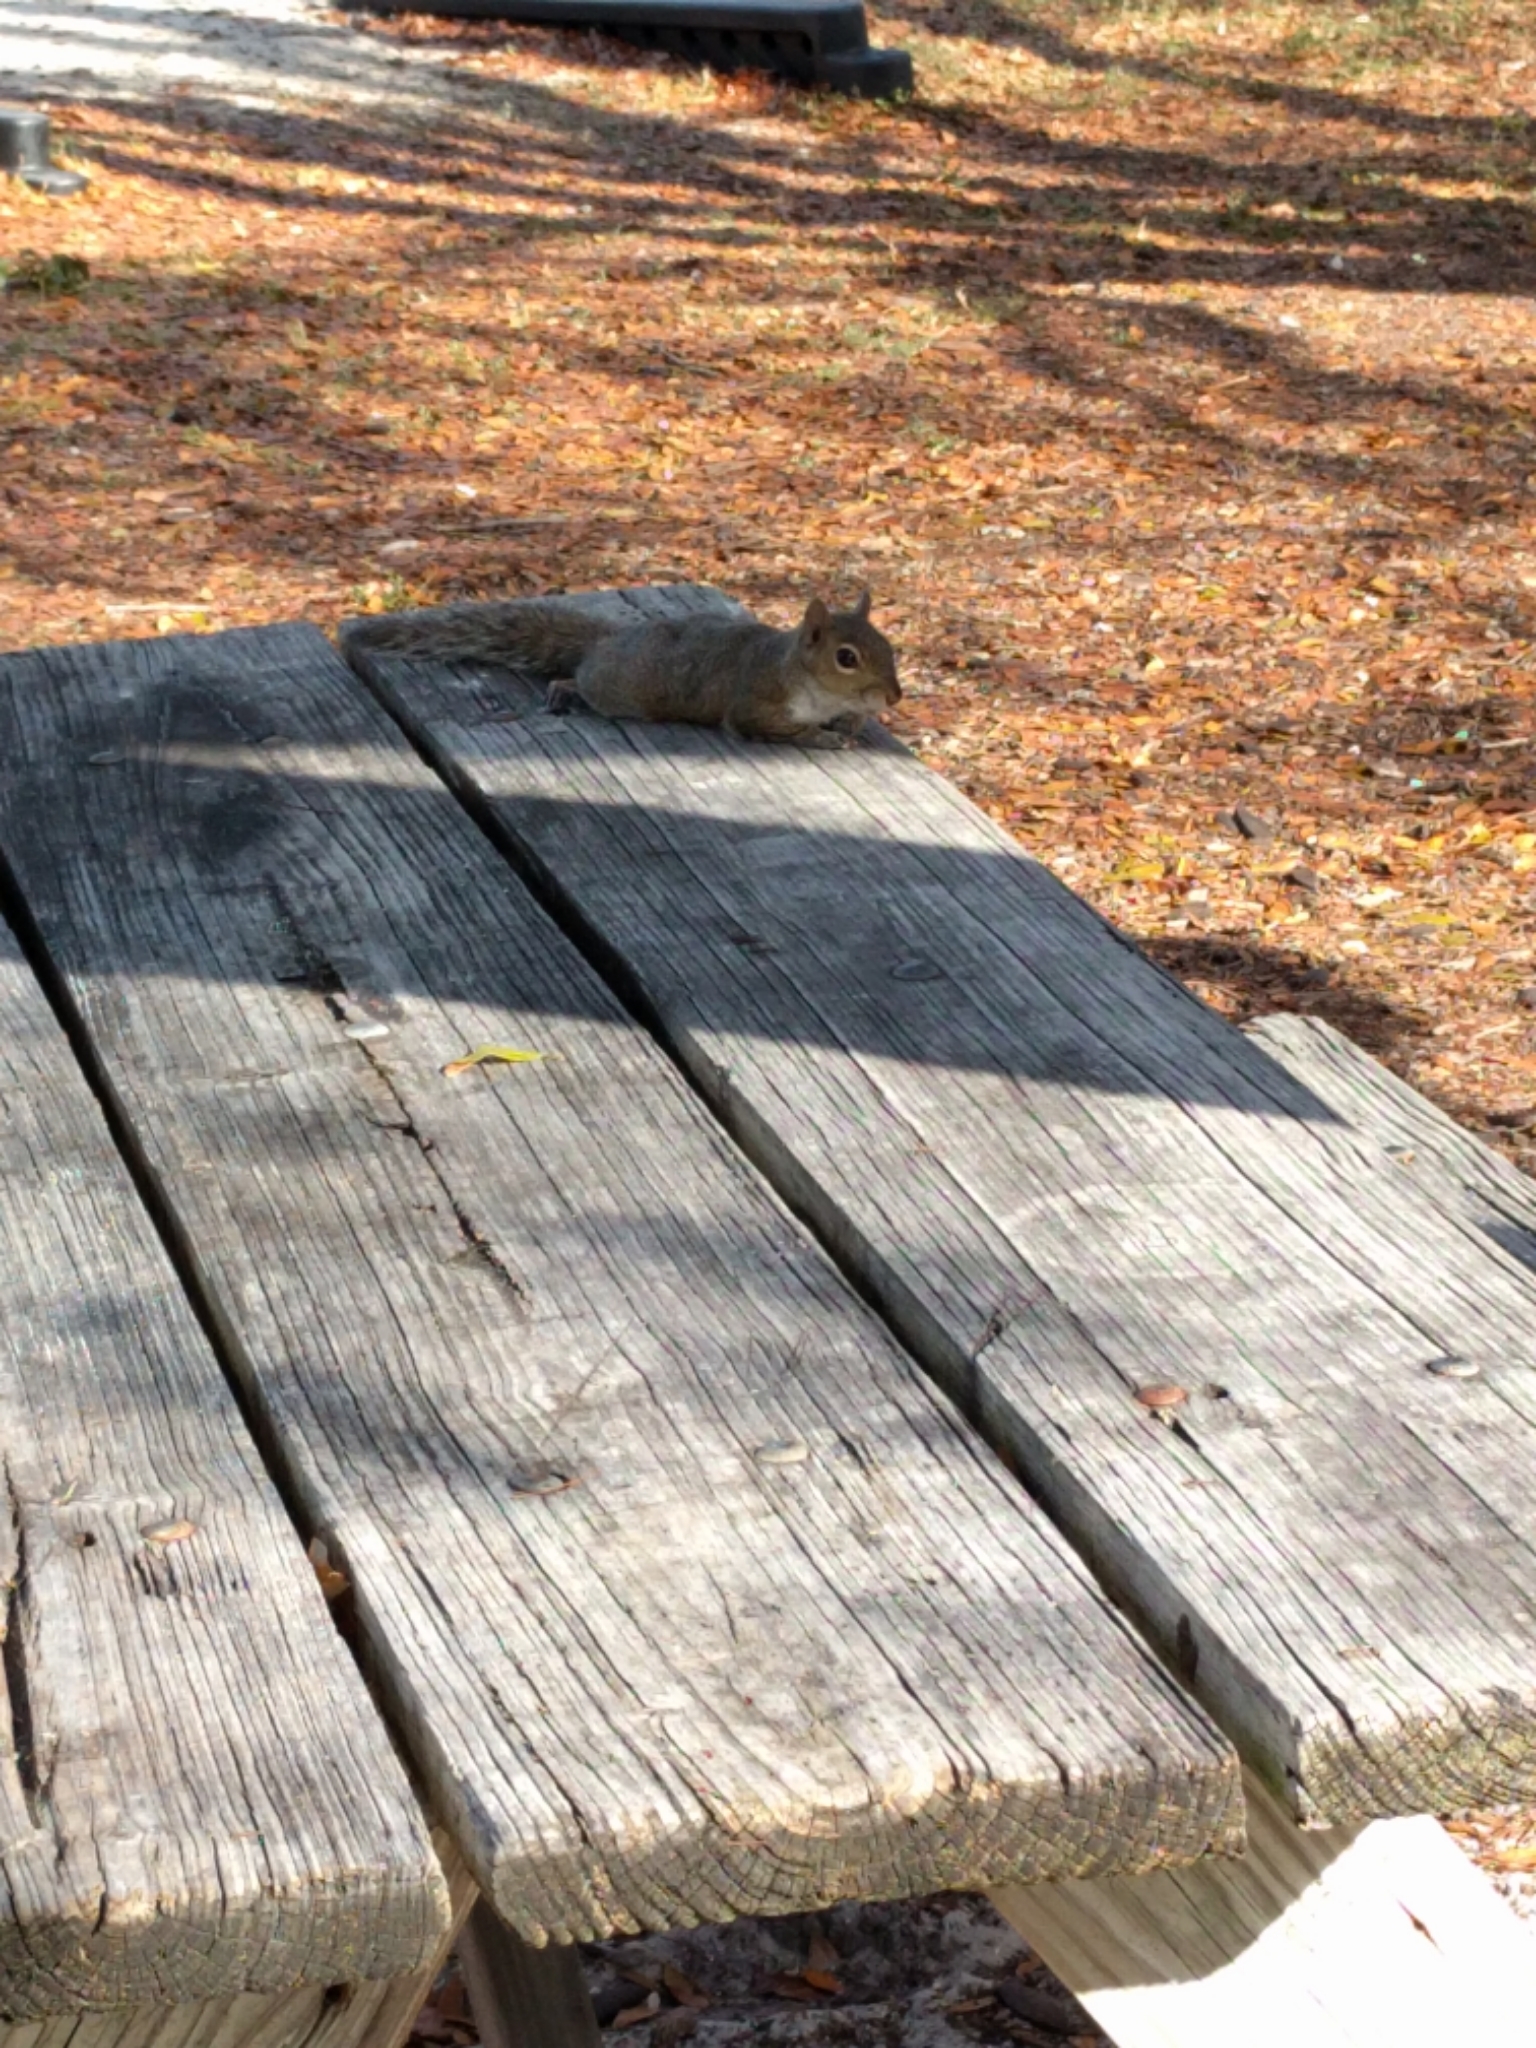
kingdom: Animalia
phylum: Chordata
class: Mammalia
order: Rodentia
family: Sciuridae
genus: Sciurus
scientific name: Sciurus carolinensis
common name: Eastern gray squirrel
